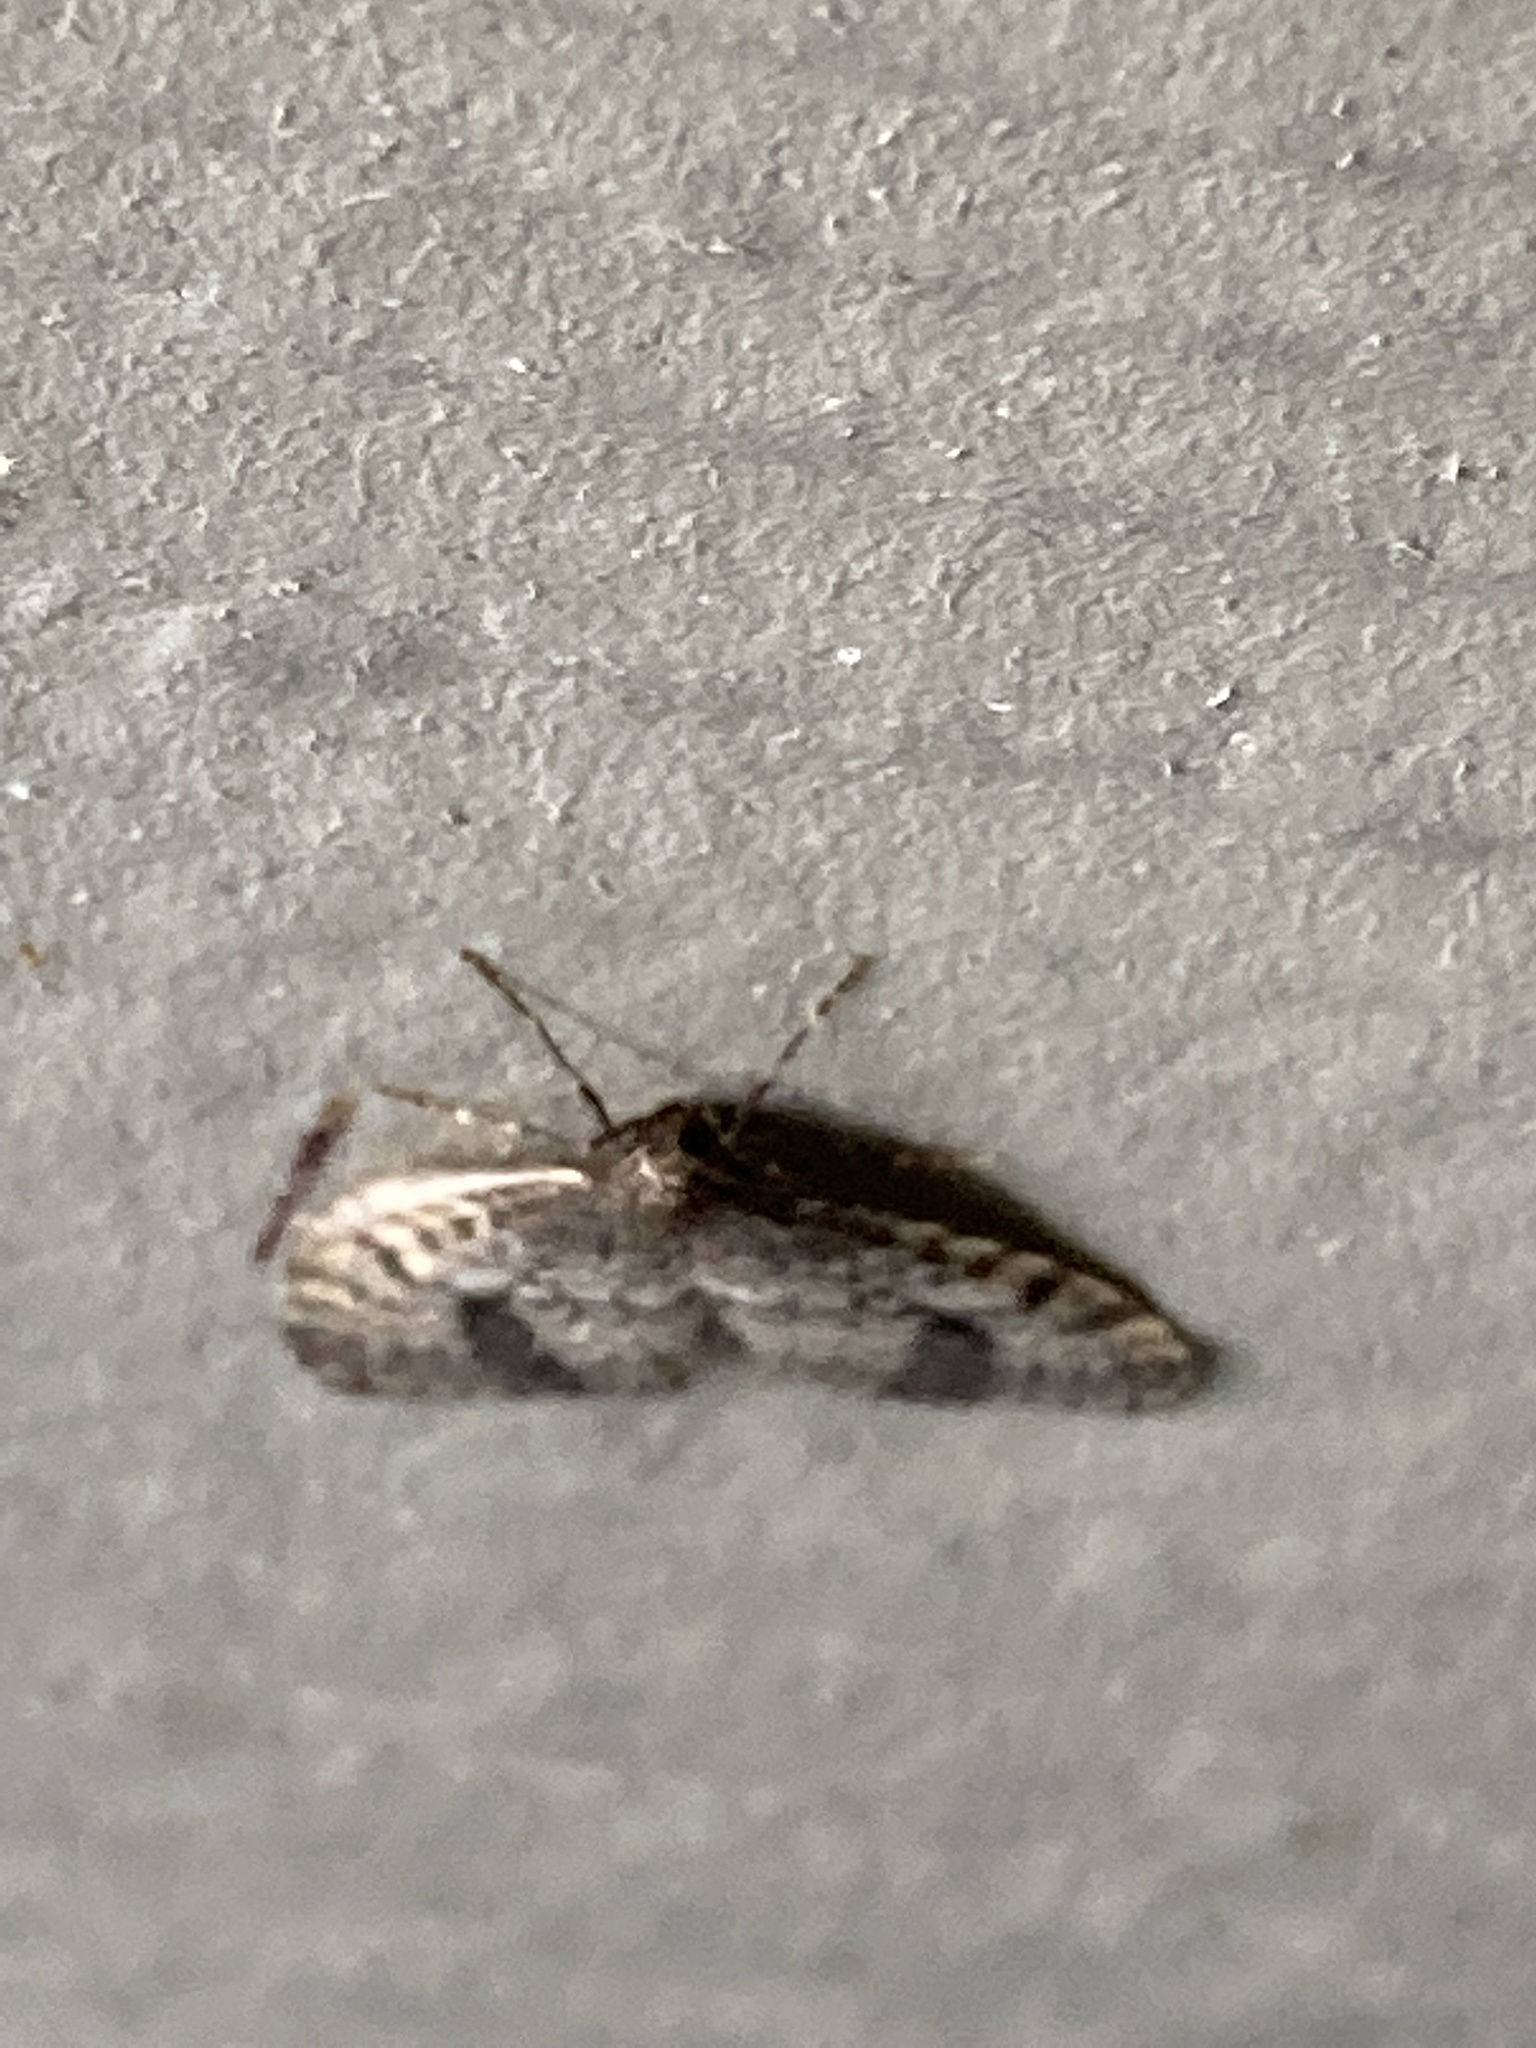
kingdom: Animalia
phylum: Arthropoda
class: Insecta
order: Lepidoptera
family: Geometridae
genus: Operophtera
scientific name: Operophtera occidentalis
